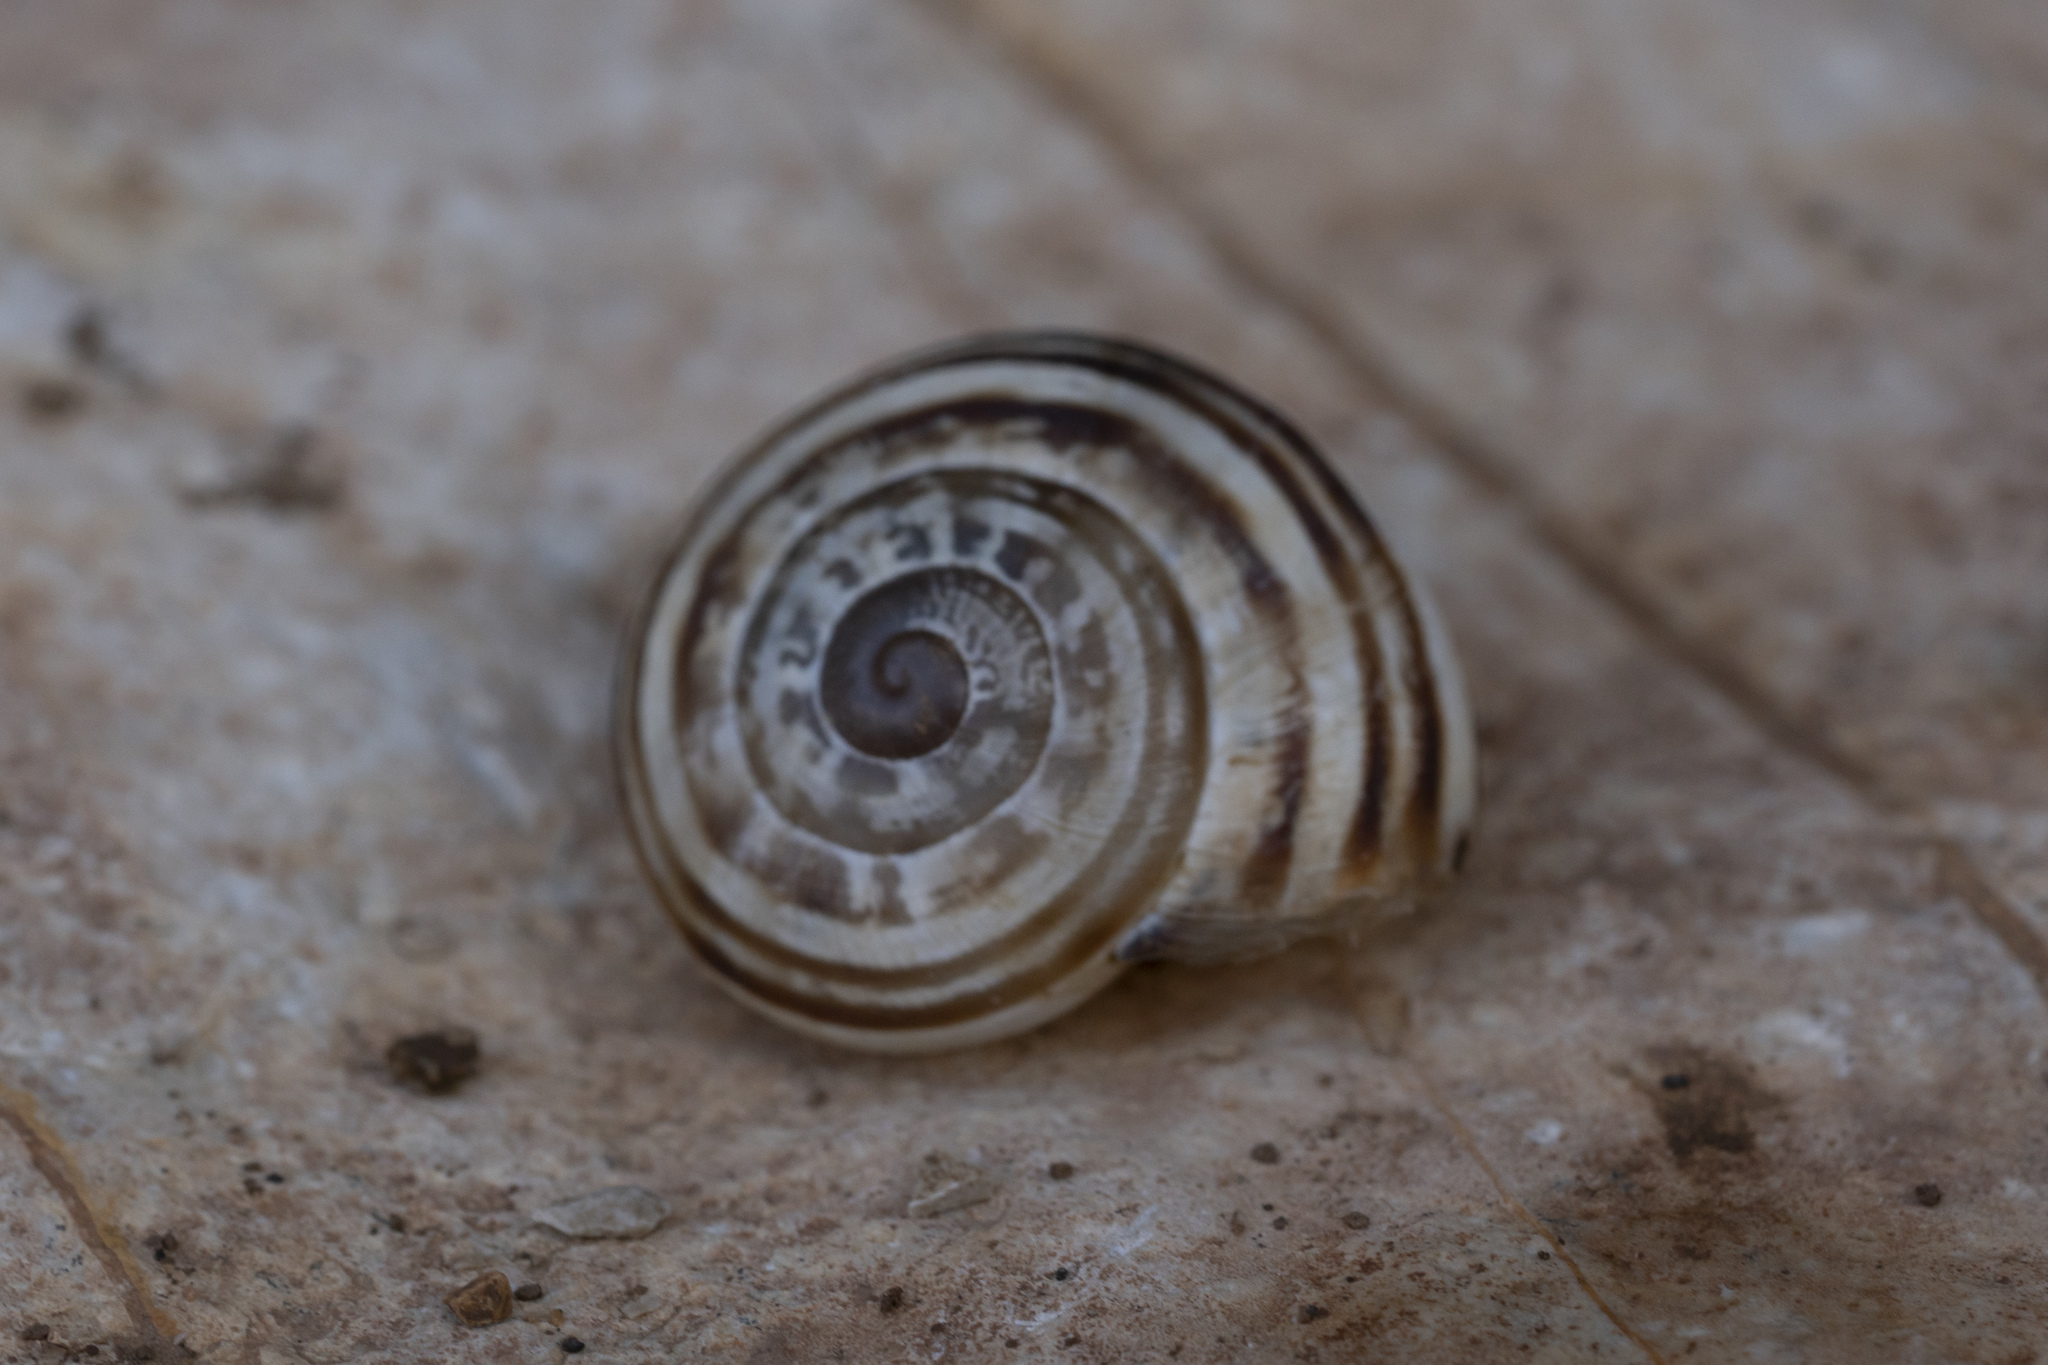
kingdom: Animalia
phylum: Mollusca
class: Gastropoda
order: Stylommatophora
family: Helicidae
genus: Eobania
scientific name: Eobania vermiculata
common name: Chocolateband snail
